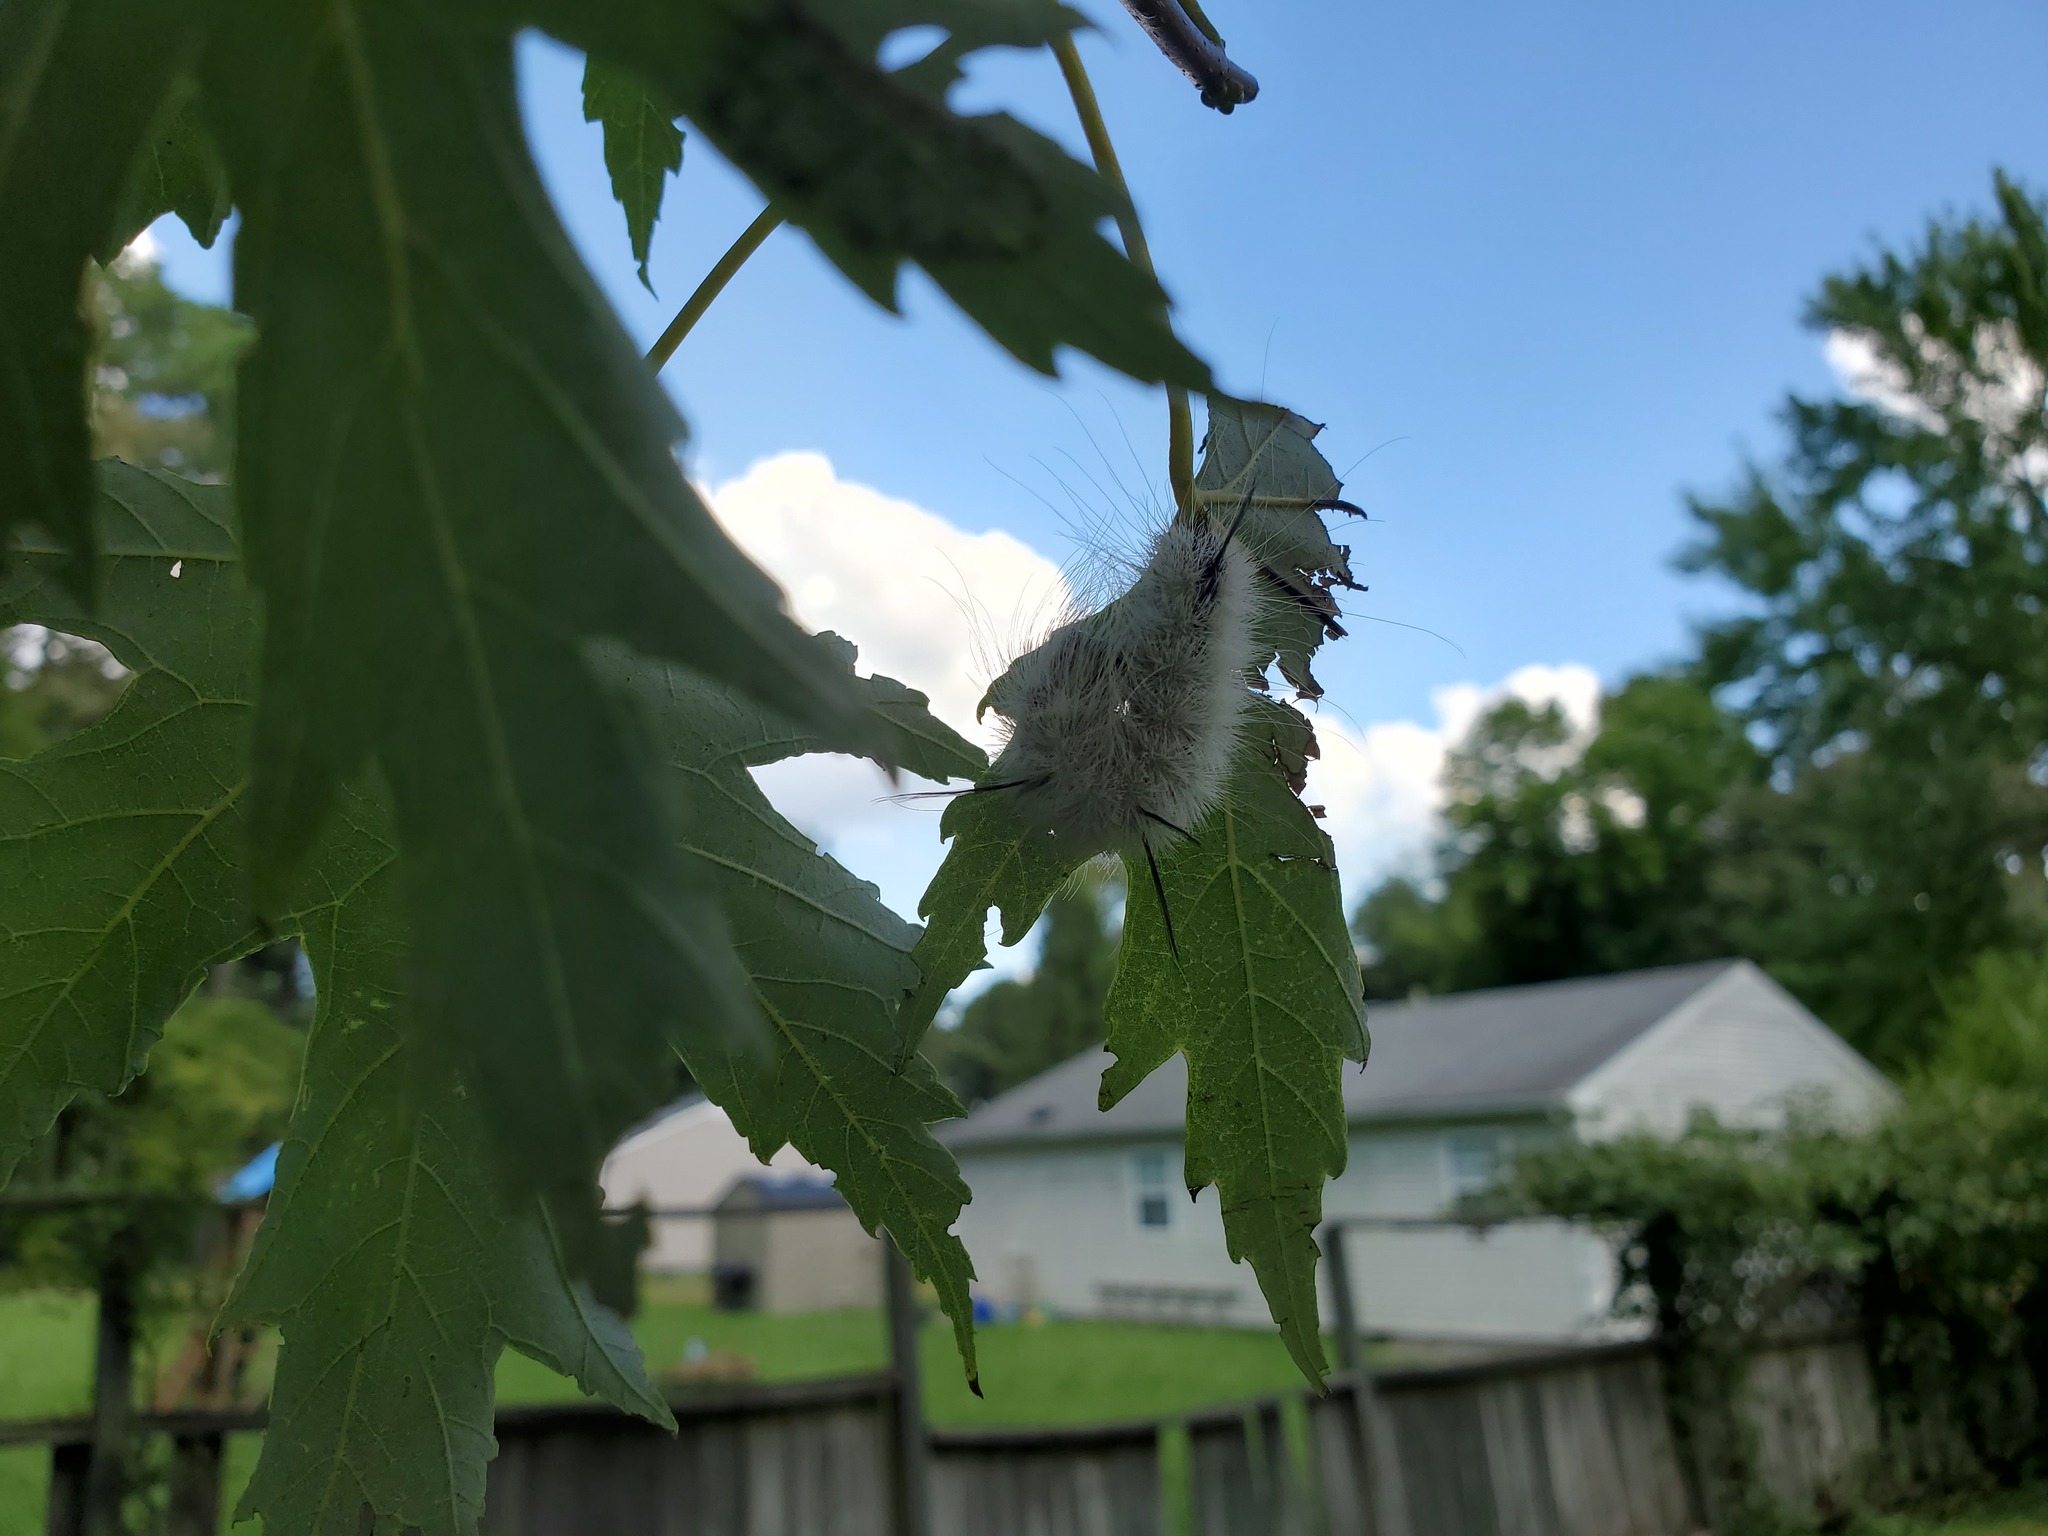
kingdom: Animalia
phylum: Arthropoda
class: Insecta
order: Lepidoptera
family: Noctuidae
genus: Acronicta
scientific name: Acronicta americana
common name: American dagger
